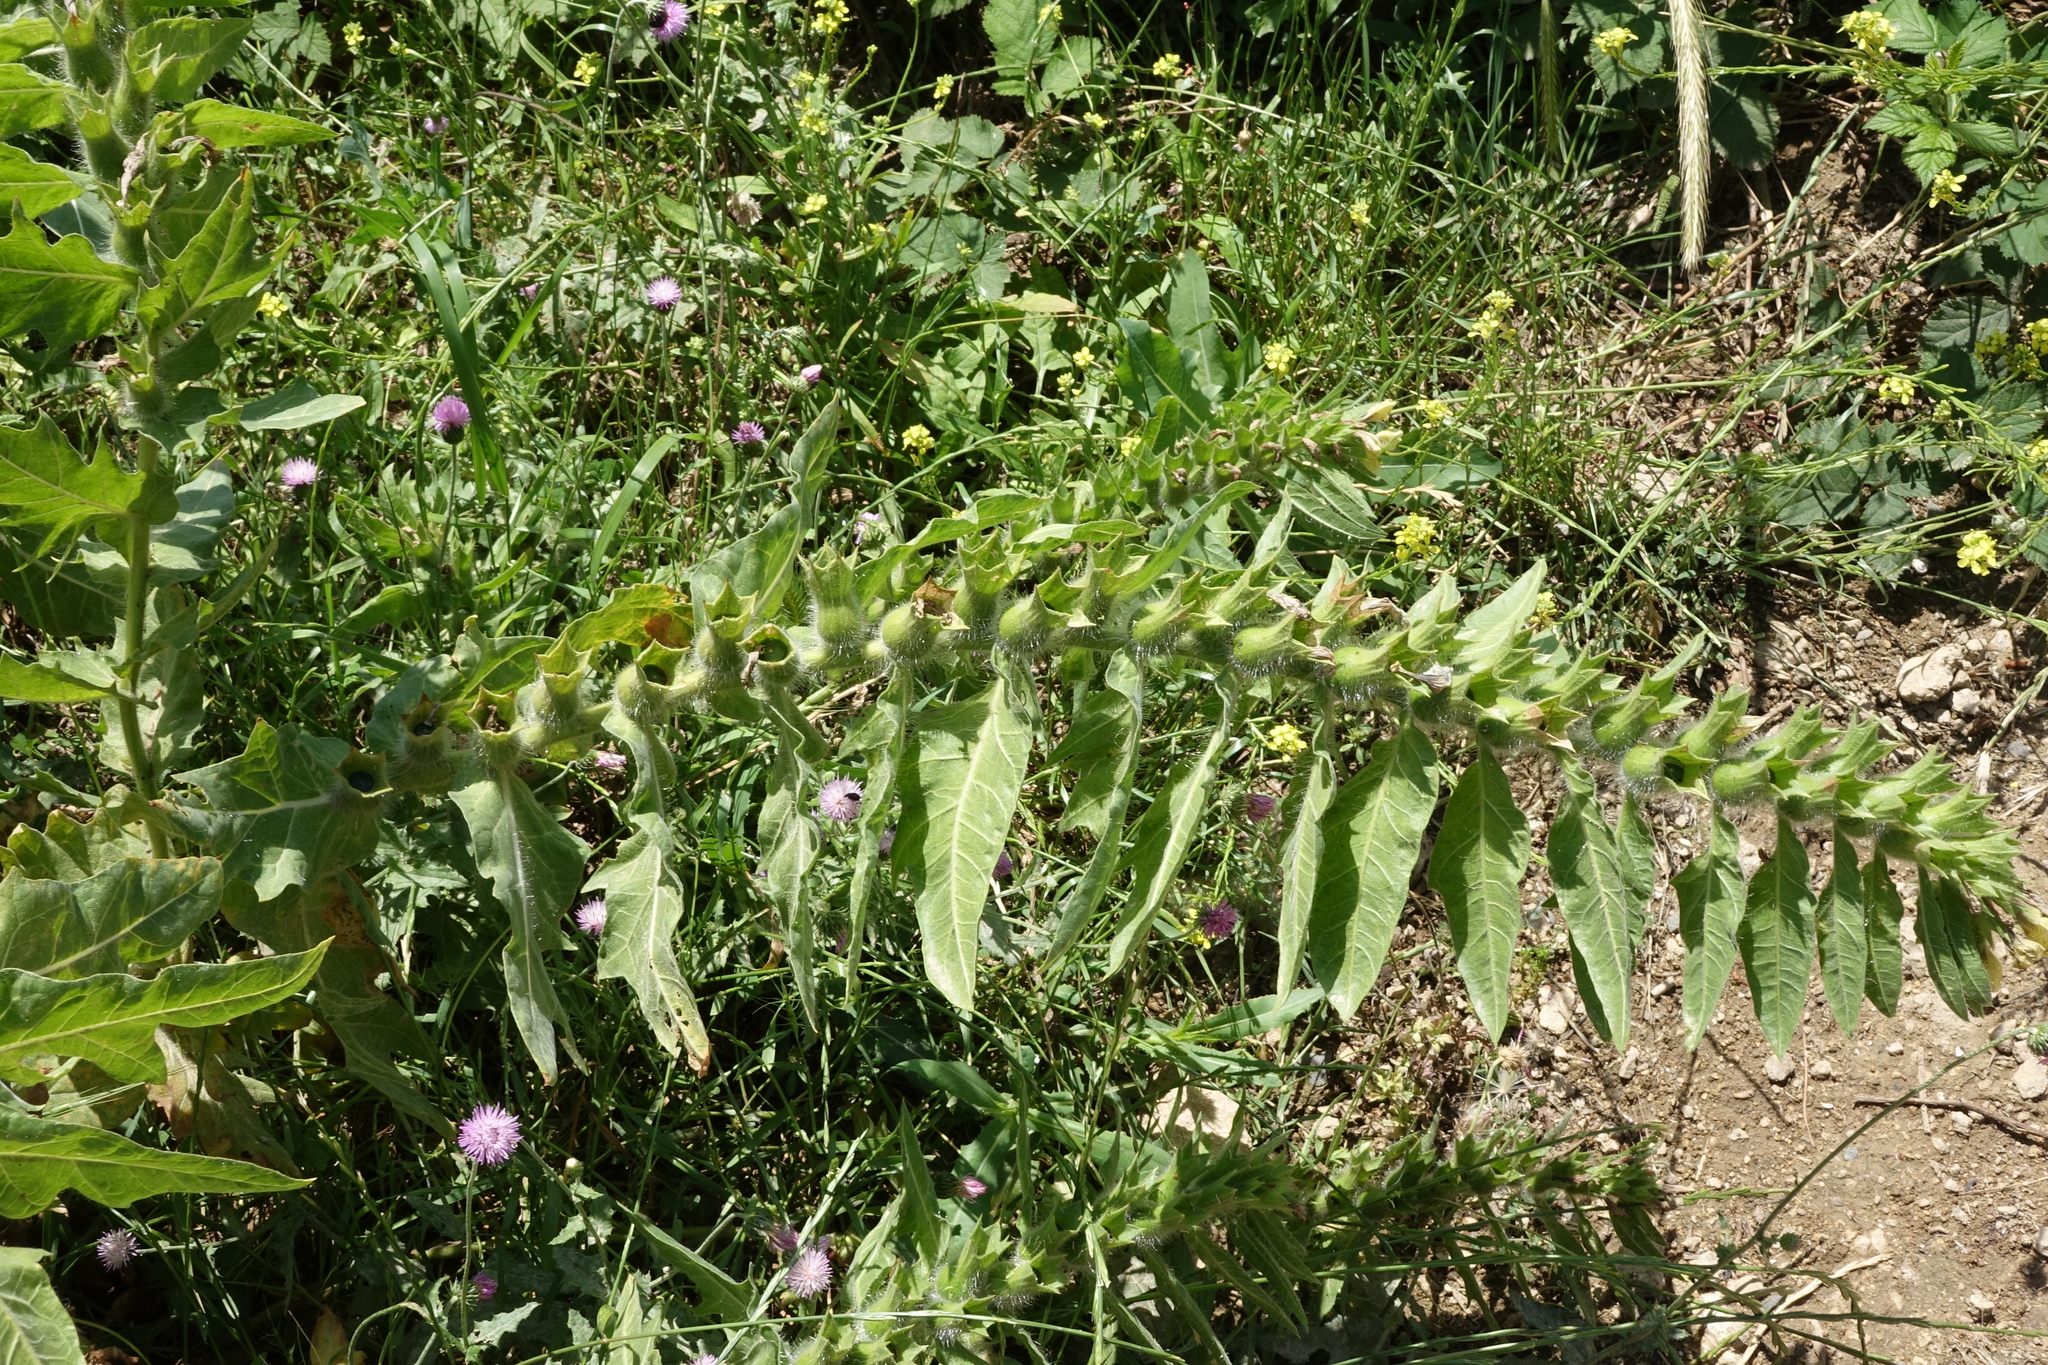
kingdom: Plantae
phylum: Tracheophyta
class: Magnoliopsida
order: Solanales
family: Solanaceae
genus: Hyoscyamus
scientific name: Hyoscyamus niger
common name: Henbane
